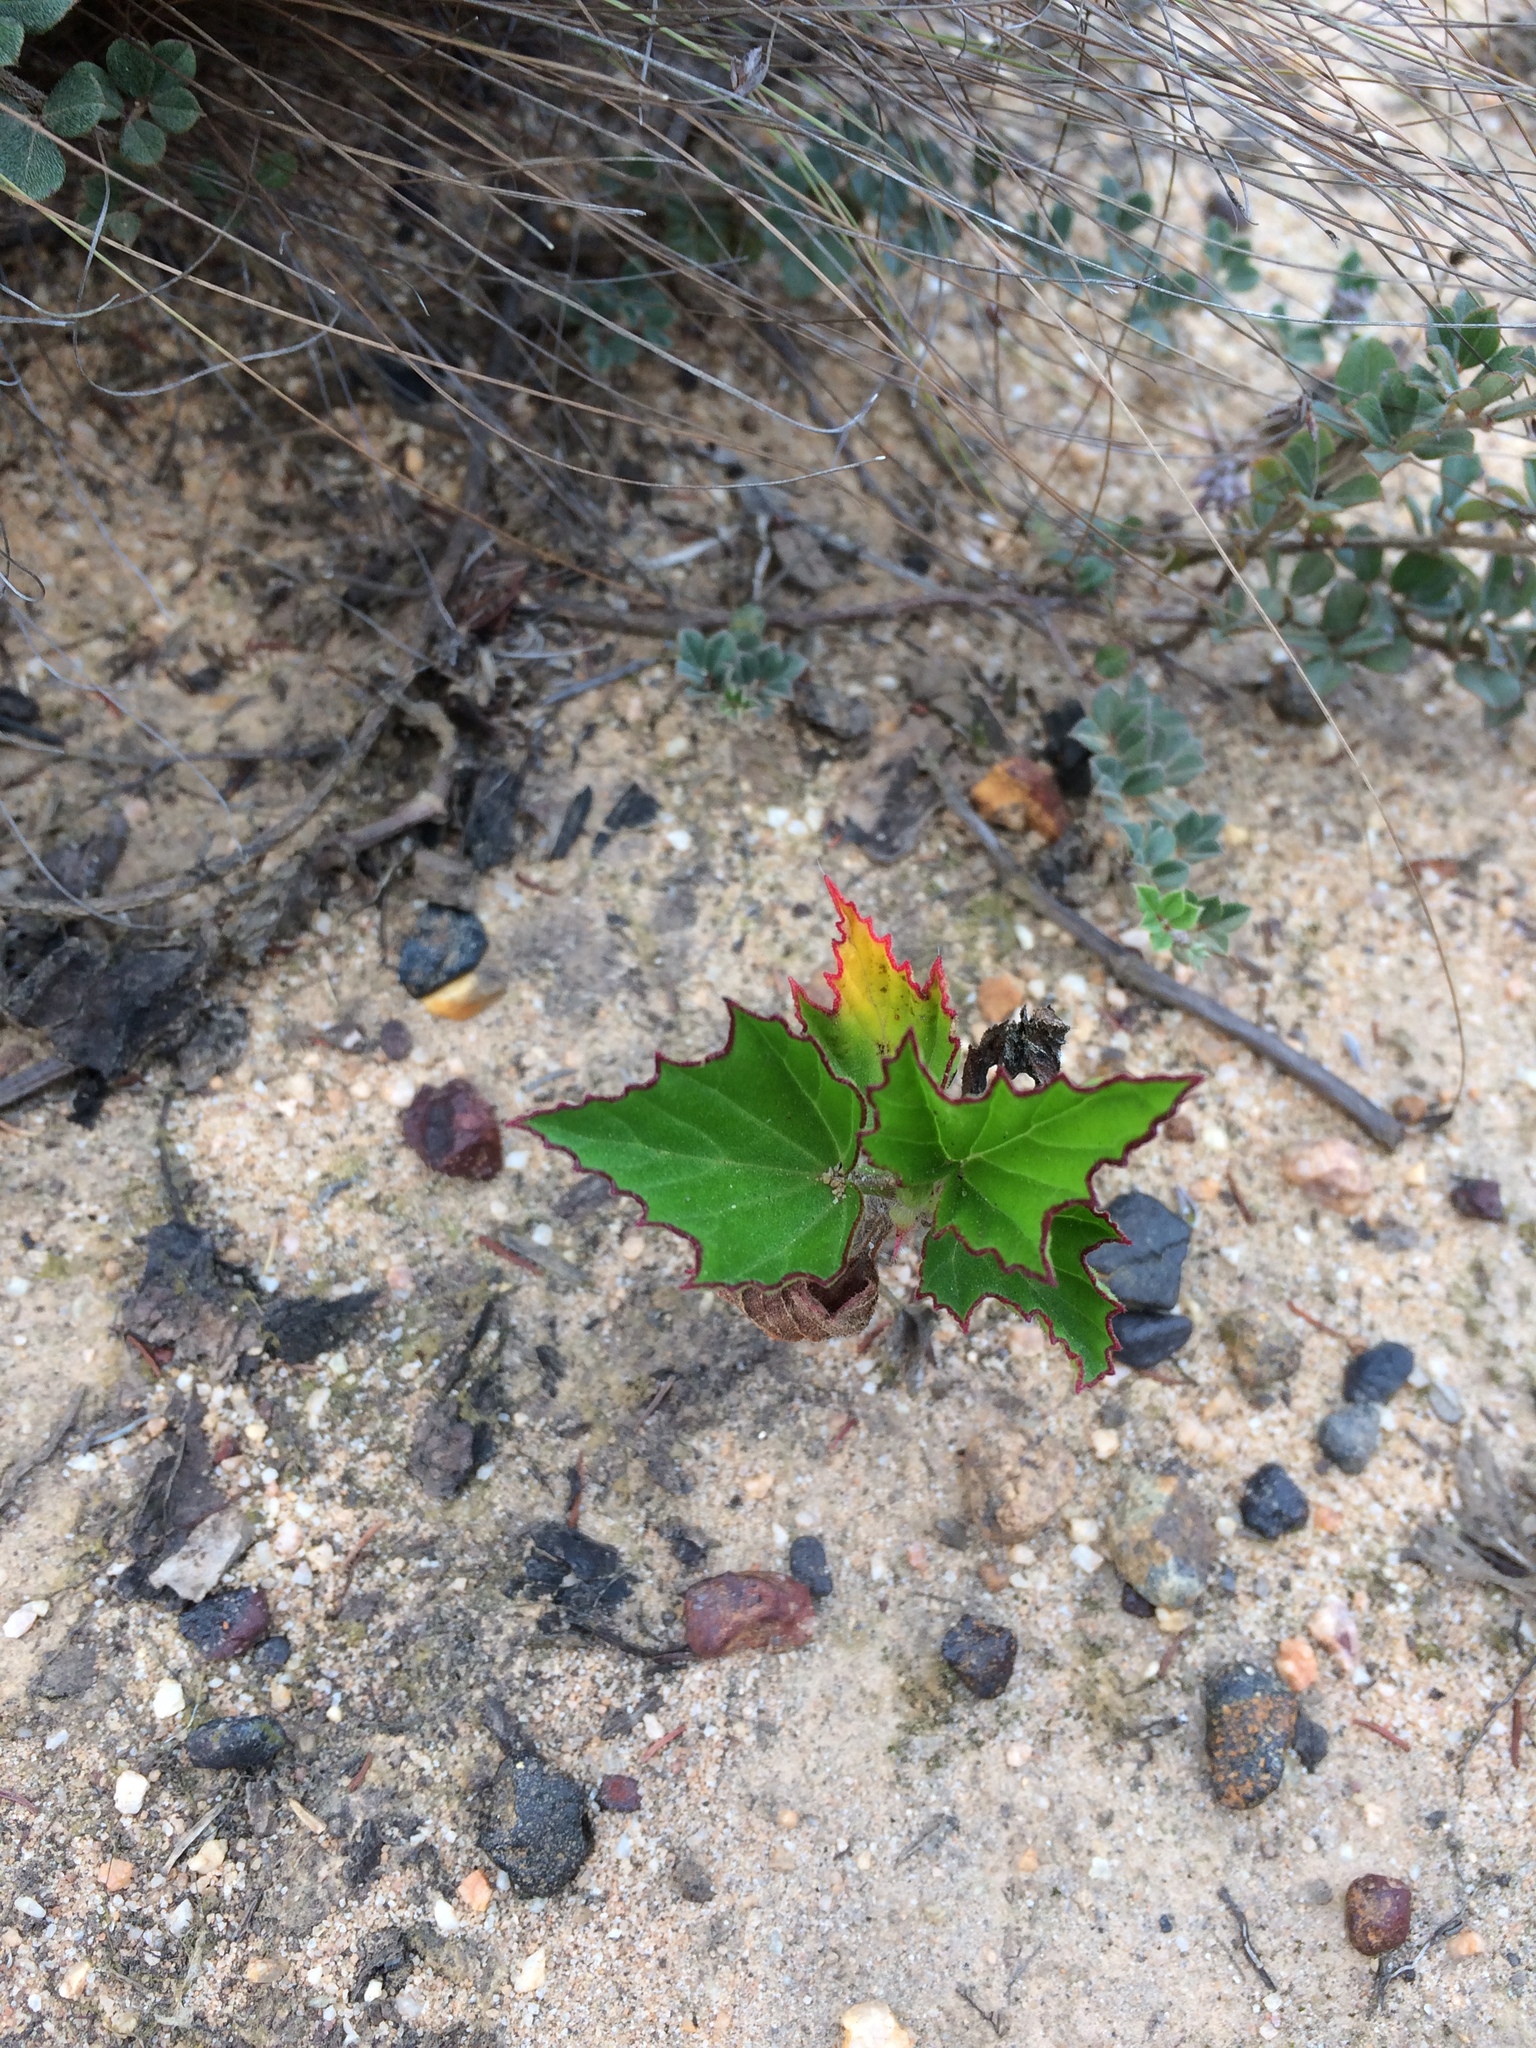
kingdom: Plantae
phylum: Tracheophyta
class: Magnoliopsida
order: Geraniales
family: Geraniaceae
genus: Pelargonium
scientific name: Pelargonium cucullatum
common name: Tree pelargonium
